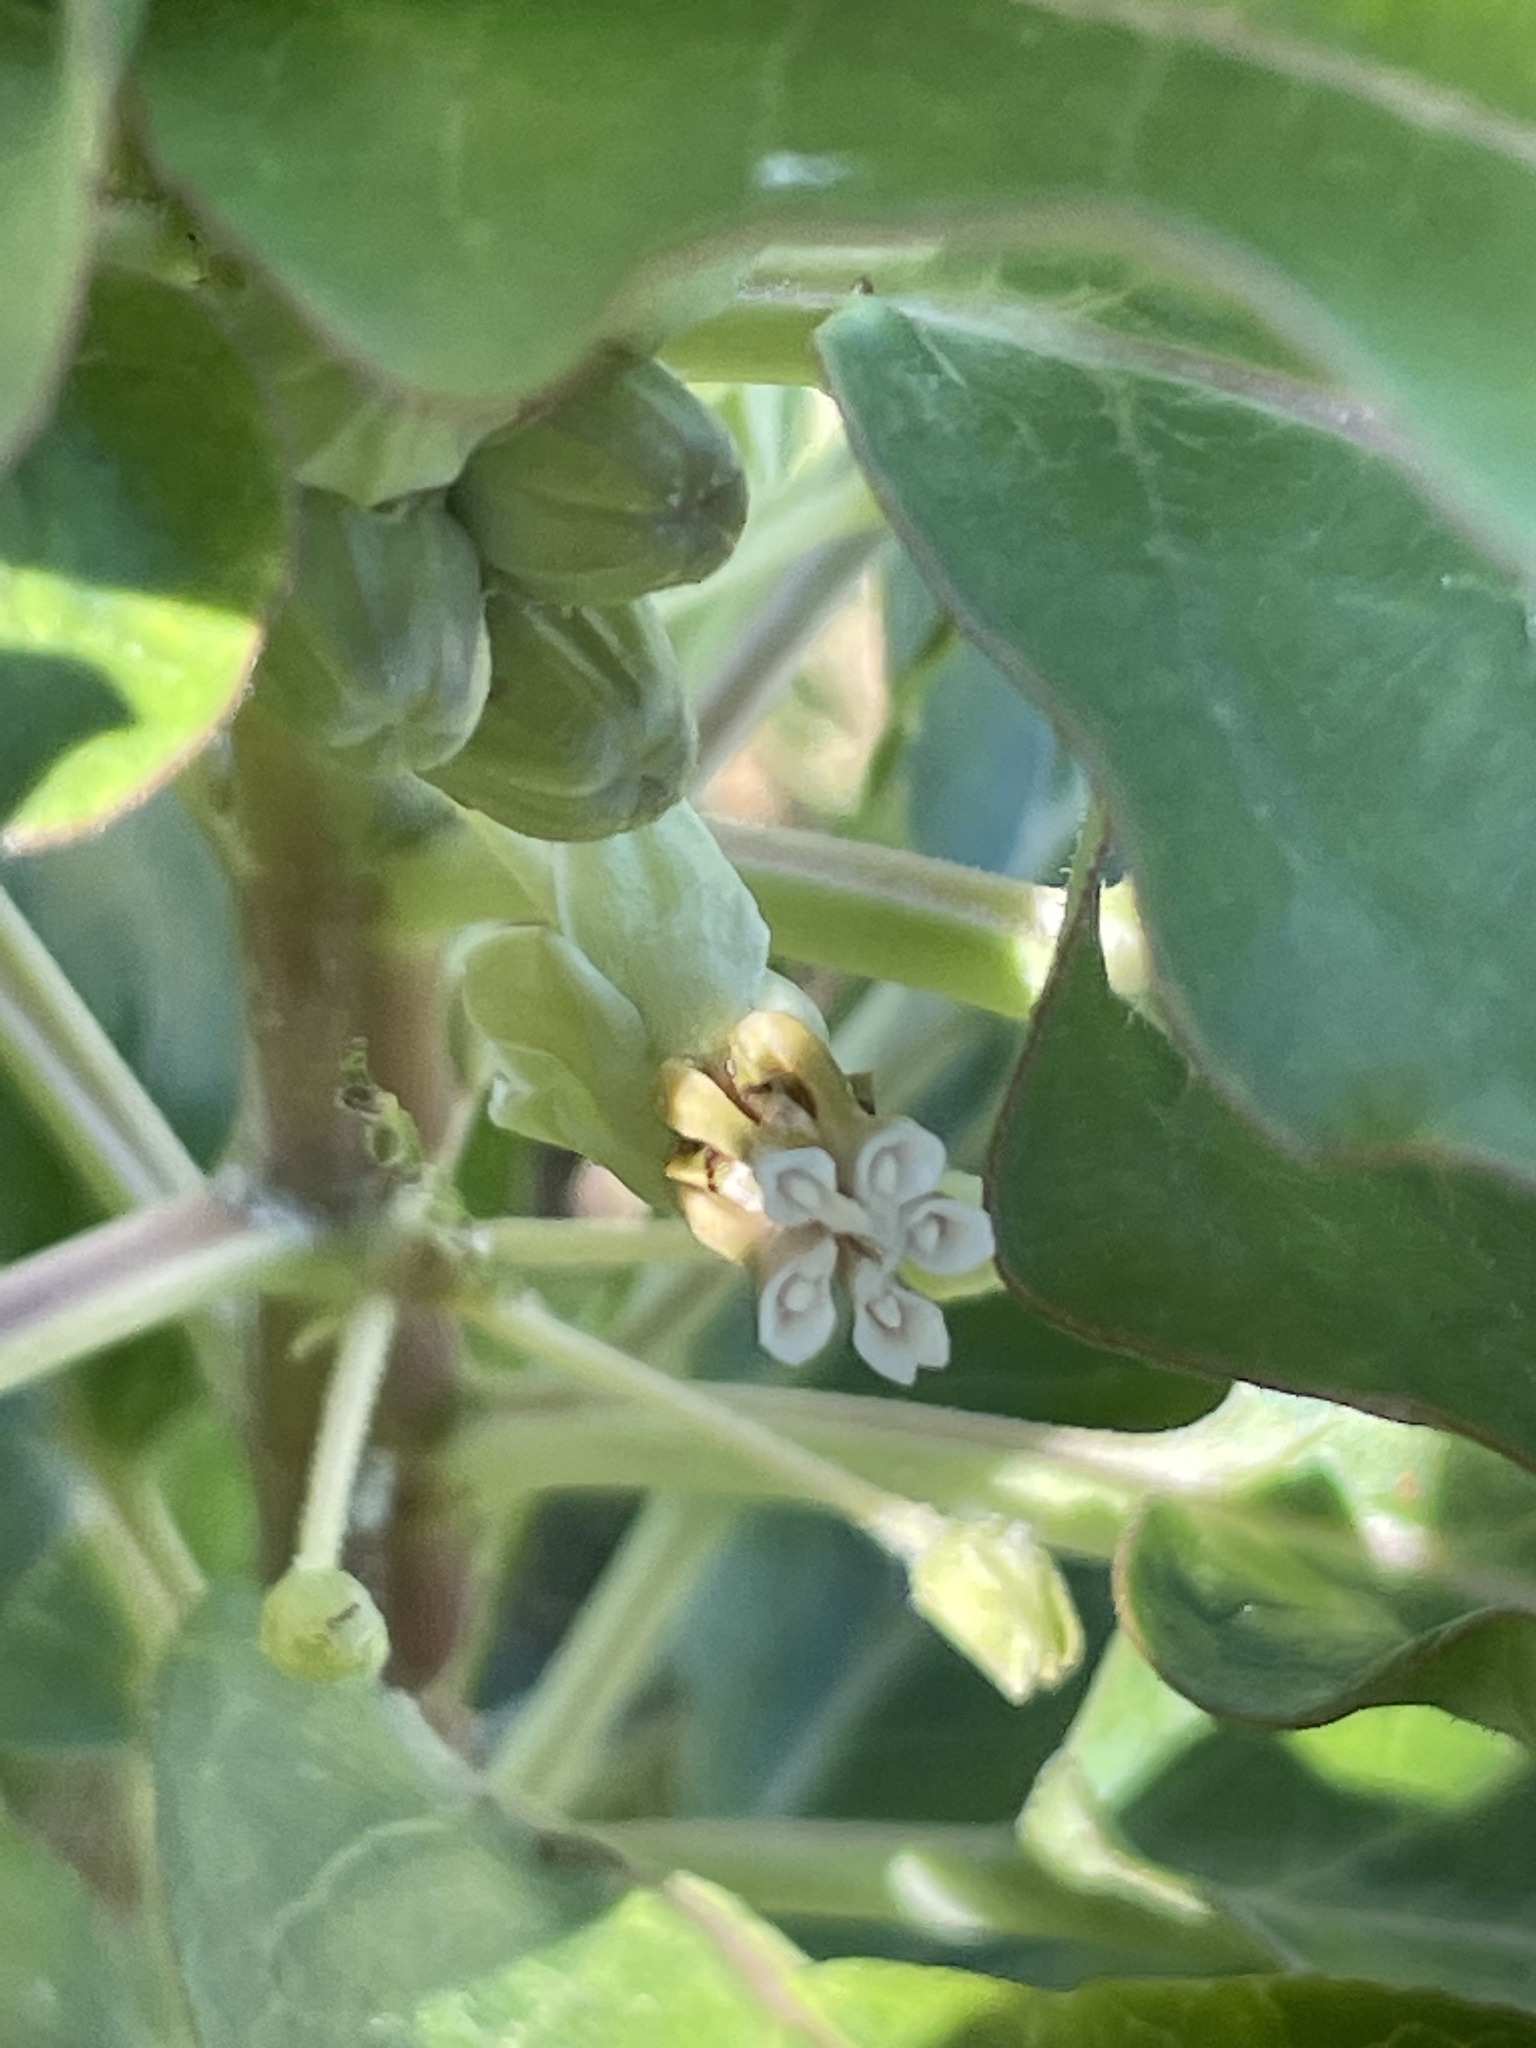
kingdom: Plantae
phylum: Tracheophyta
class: Magnoliopsida
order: Gentianales
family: Apocynaceae
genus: Asclepias
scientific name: Asclepias oenotheroides
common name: Zizotes milkweed
